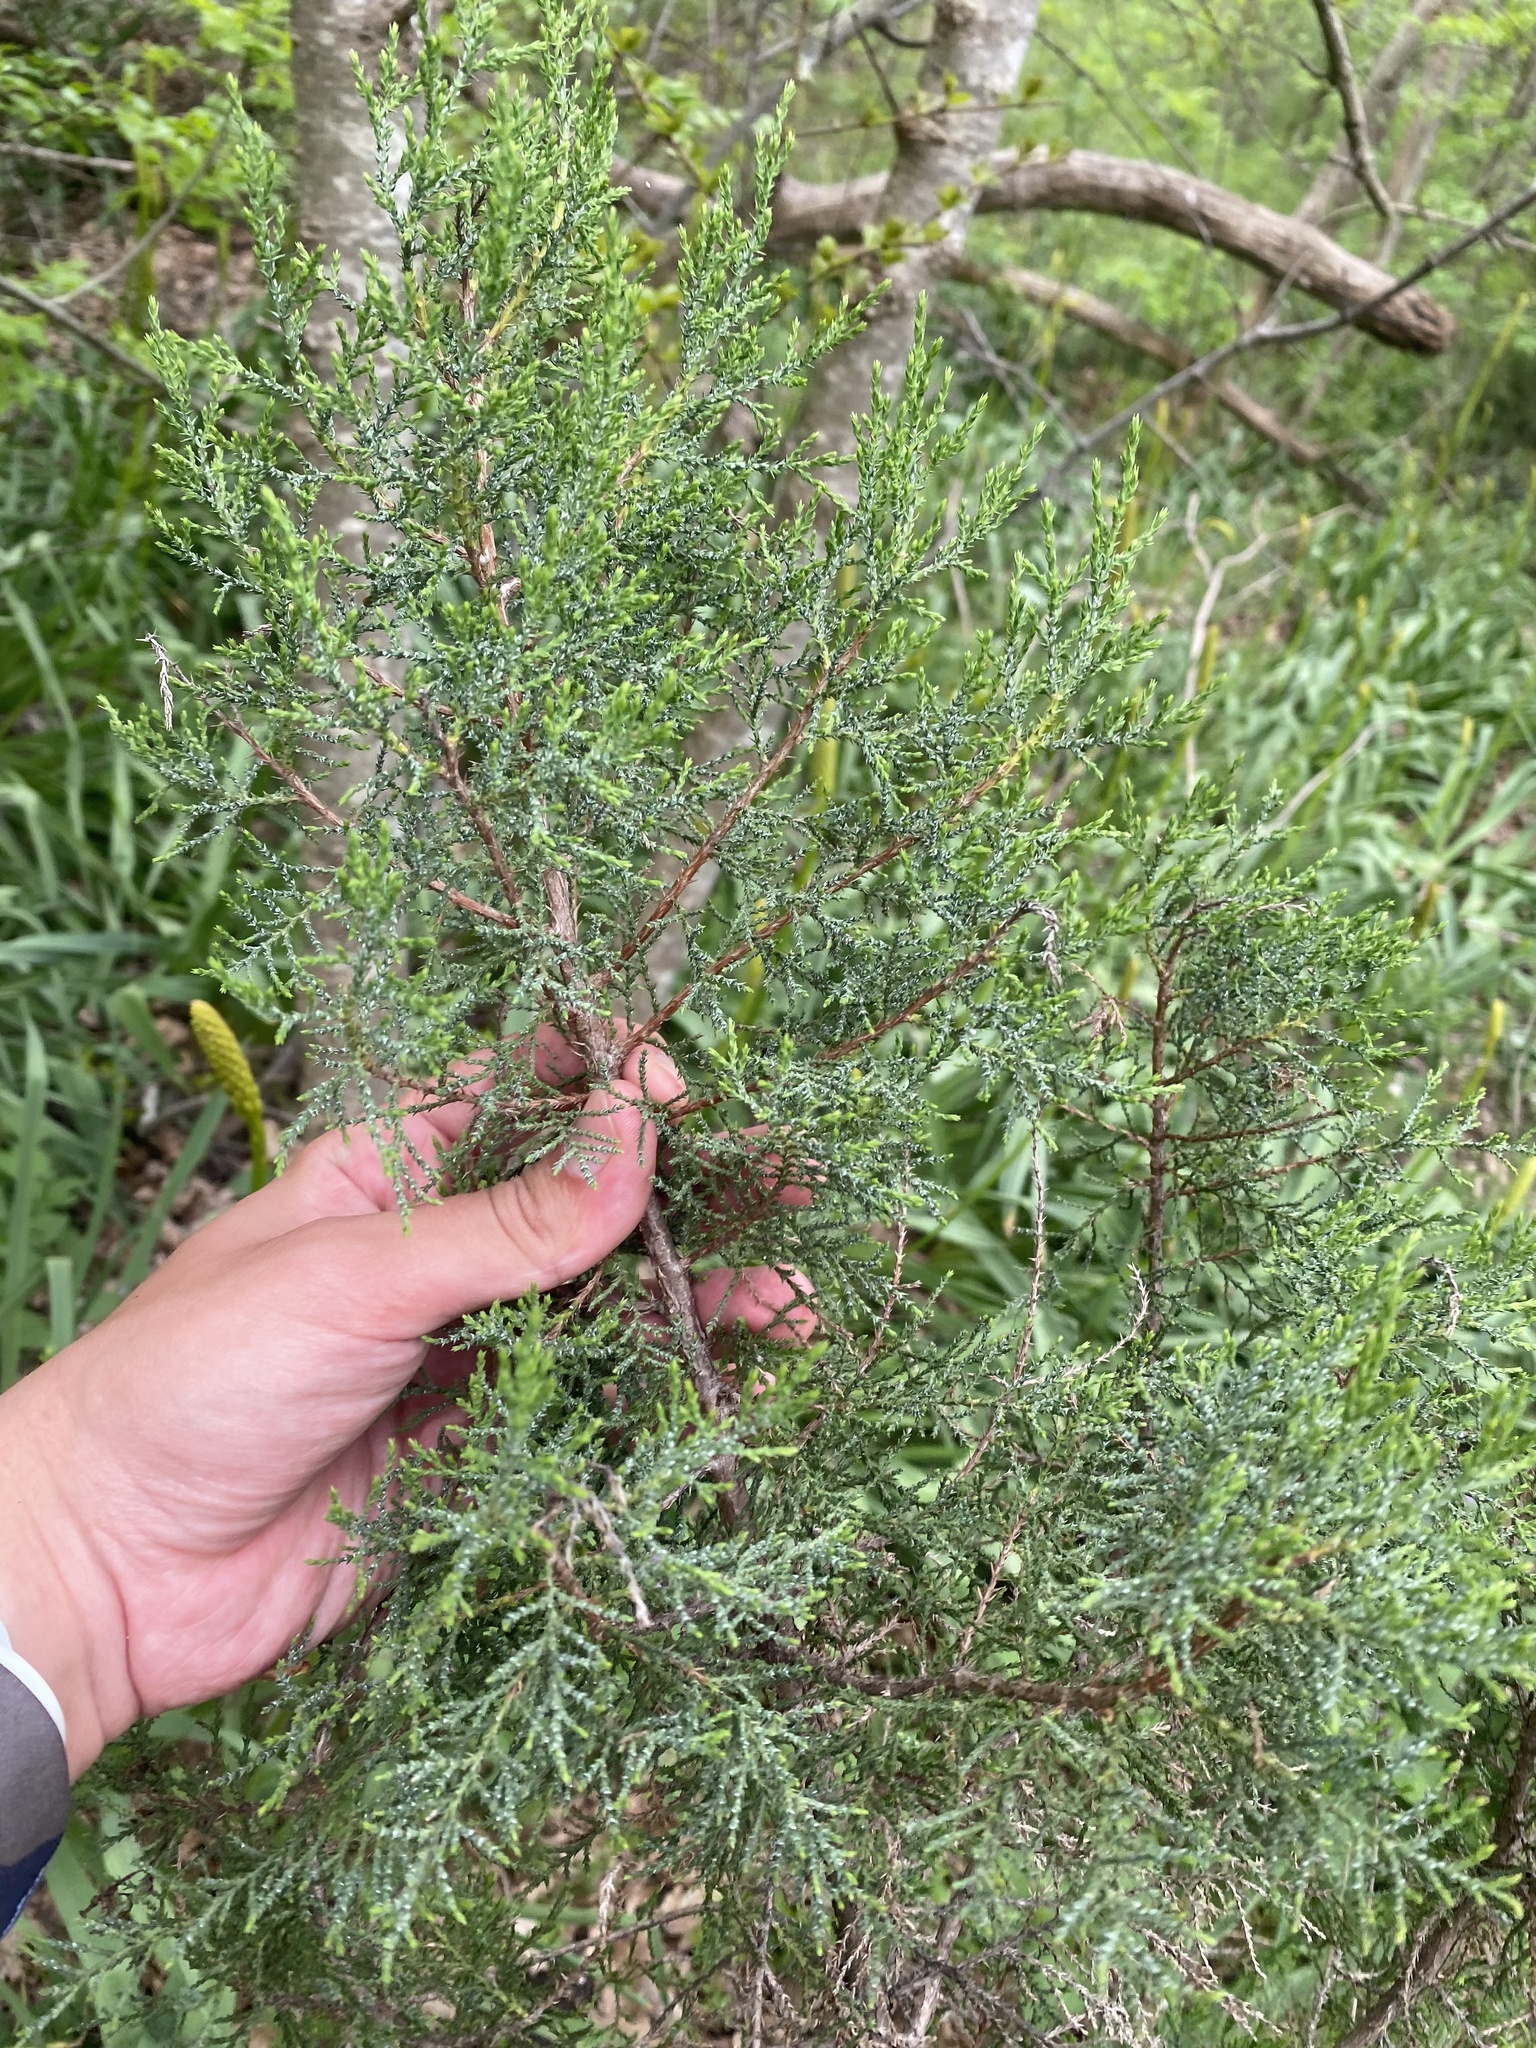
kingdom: Plantae
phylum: Tracheophyta
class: Pinopsida
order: Pinales
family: Cupressaceae
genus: Juniperus
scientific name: Juniperus foetidissima
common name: Stinking juniper
